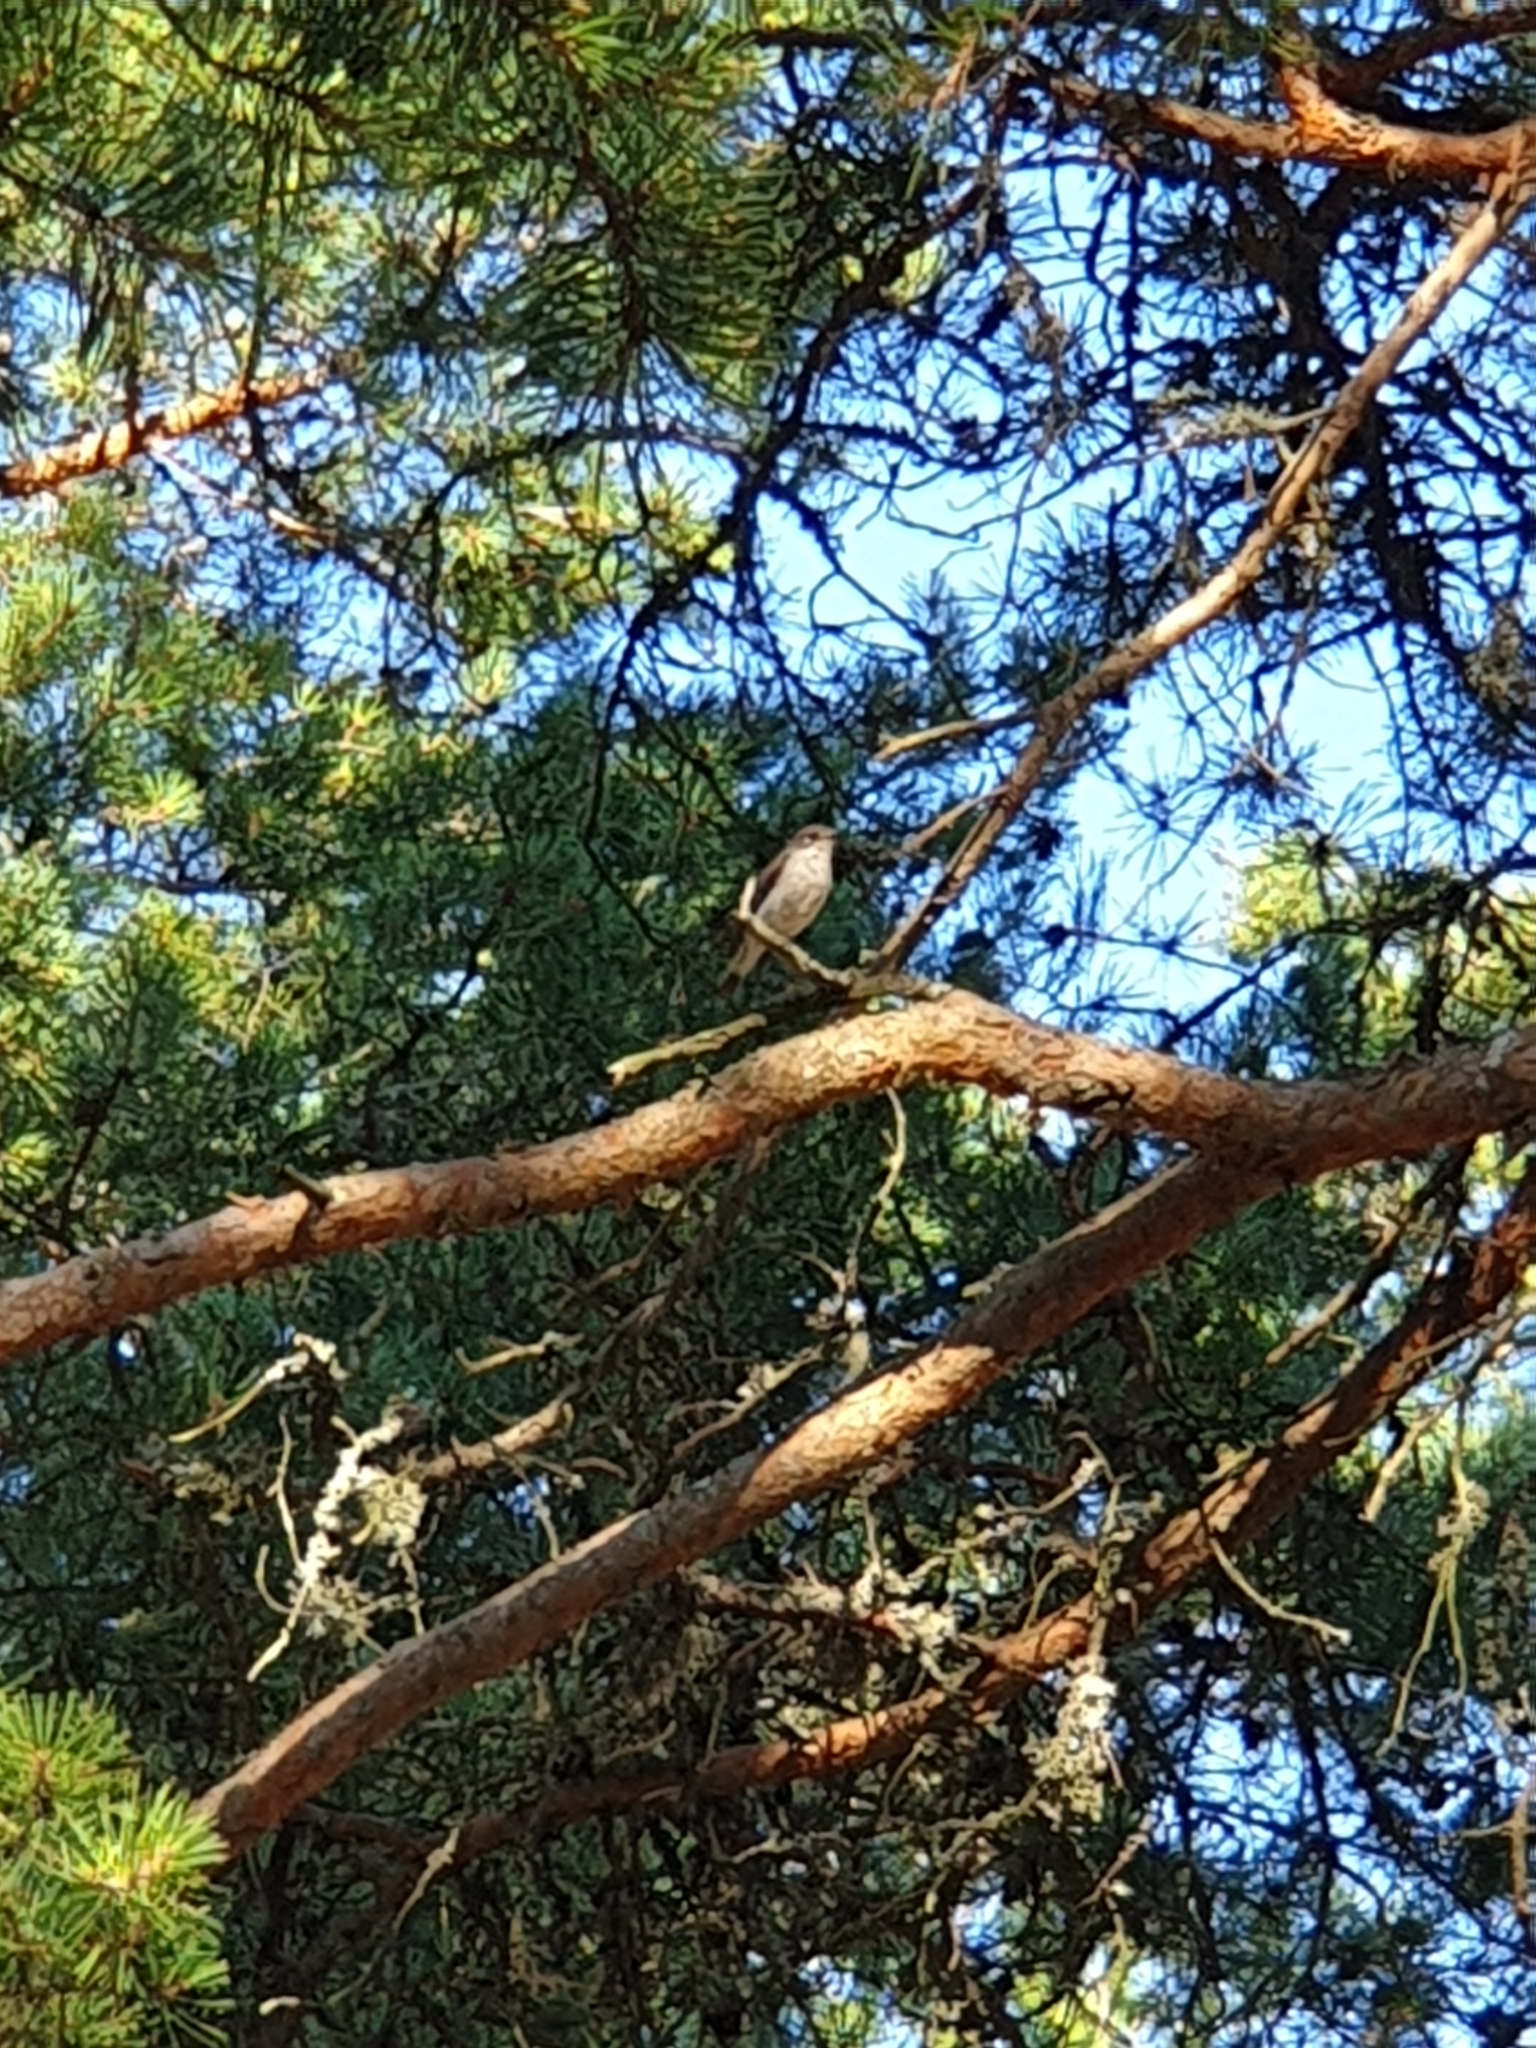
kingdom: Animalia
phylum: Chordata
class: Aves
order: Passeriformes
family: Muscicapidae
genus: Muscicapa
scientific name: Muscicapa striata
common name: Spotted flycatcher
